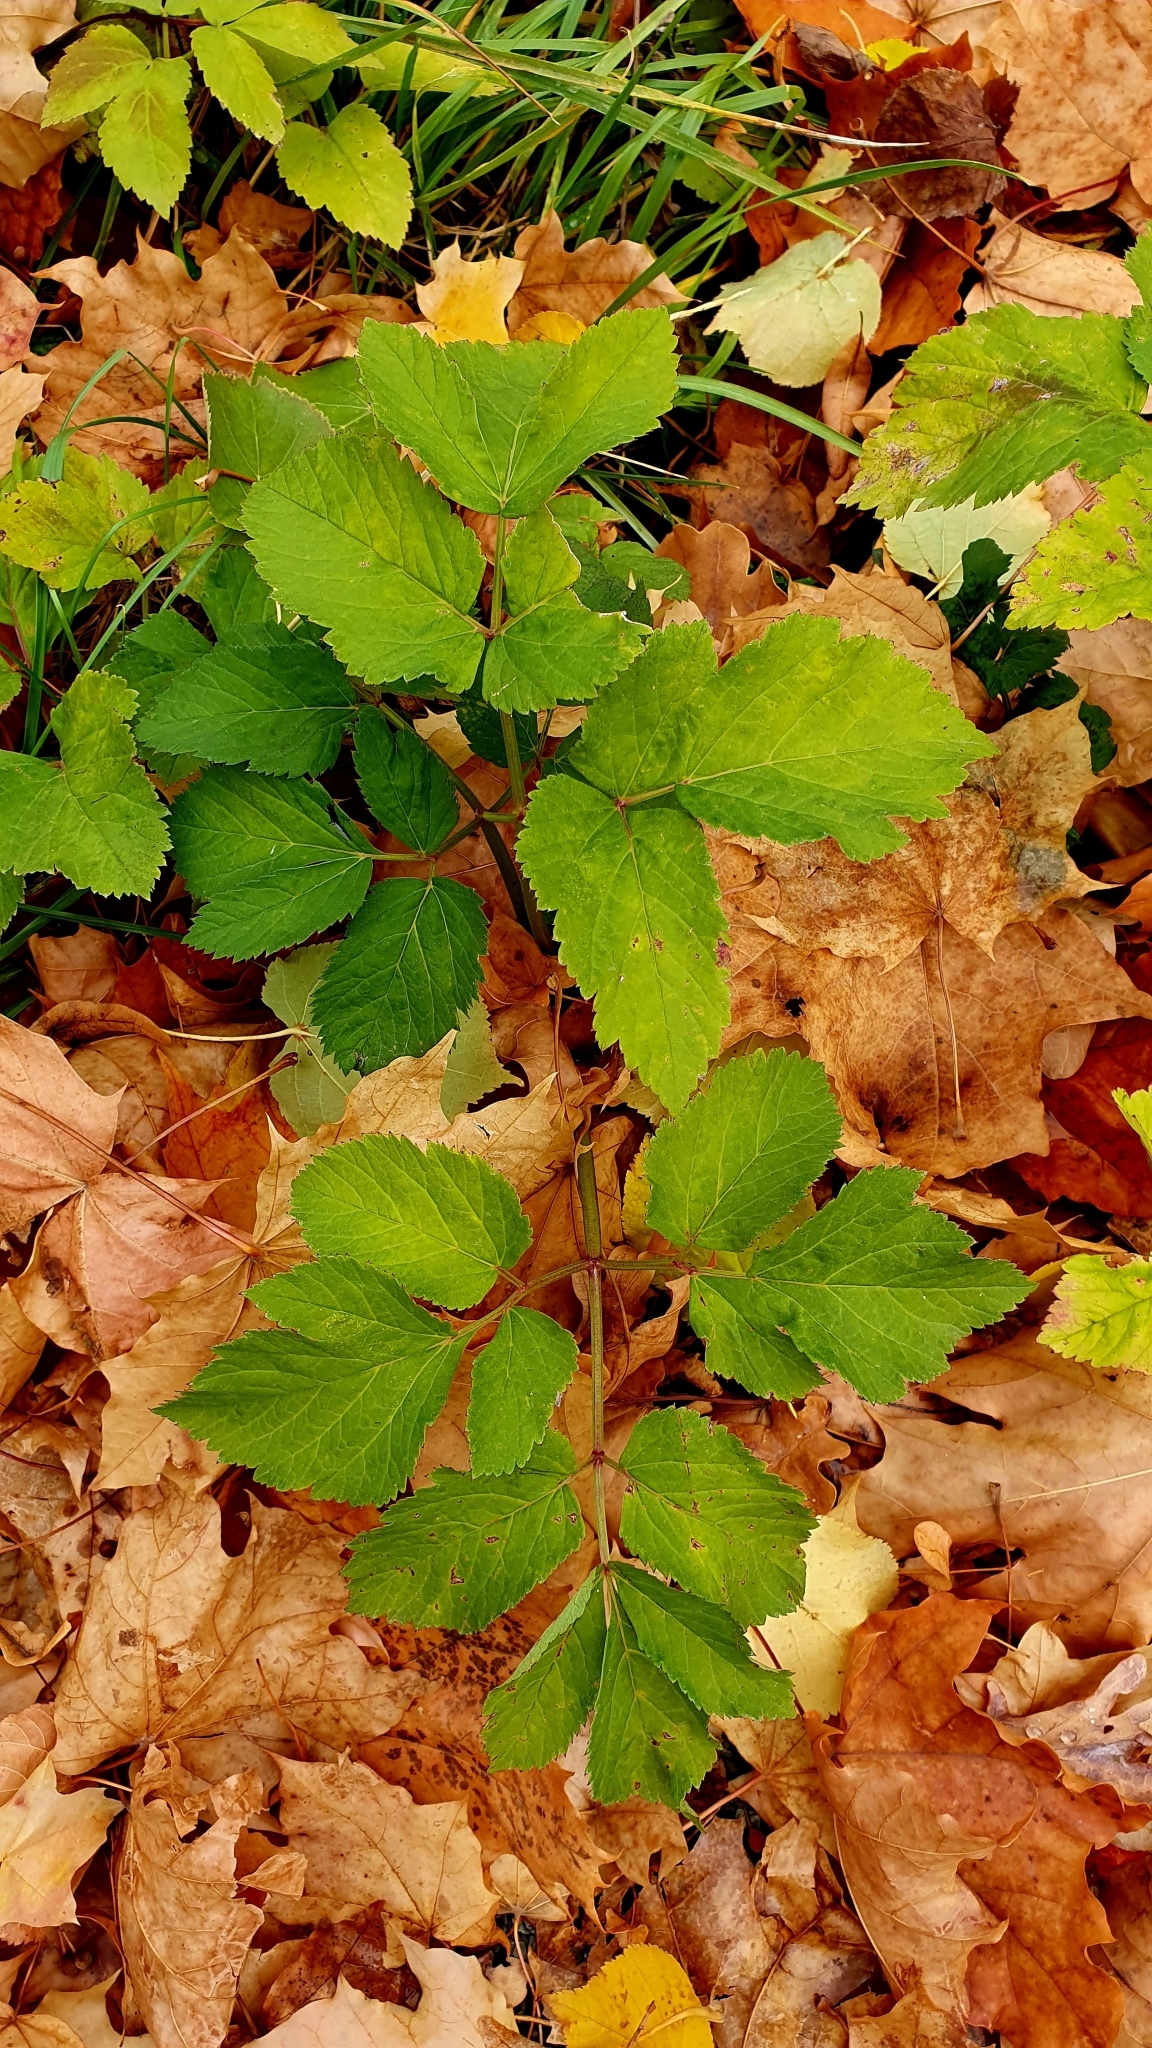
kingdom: Plantae
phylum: Tracheophyta
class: Magnoliopsida
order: Apiales
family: Apiaceae
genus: Aegopodium
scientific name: Aegopodium podagraria
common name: Ground-elder
